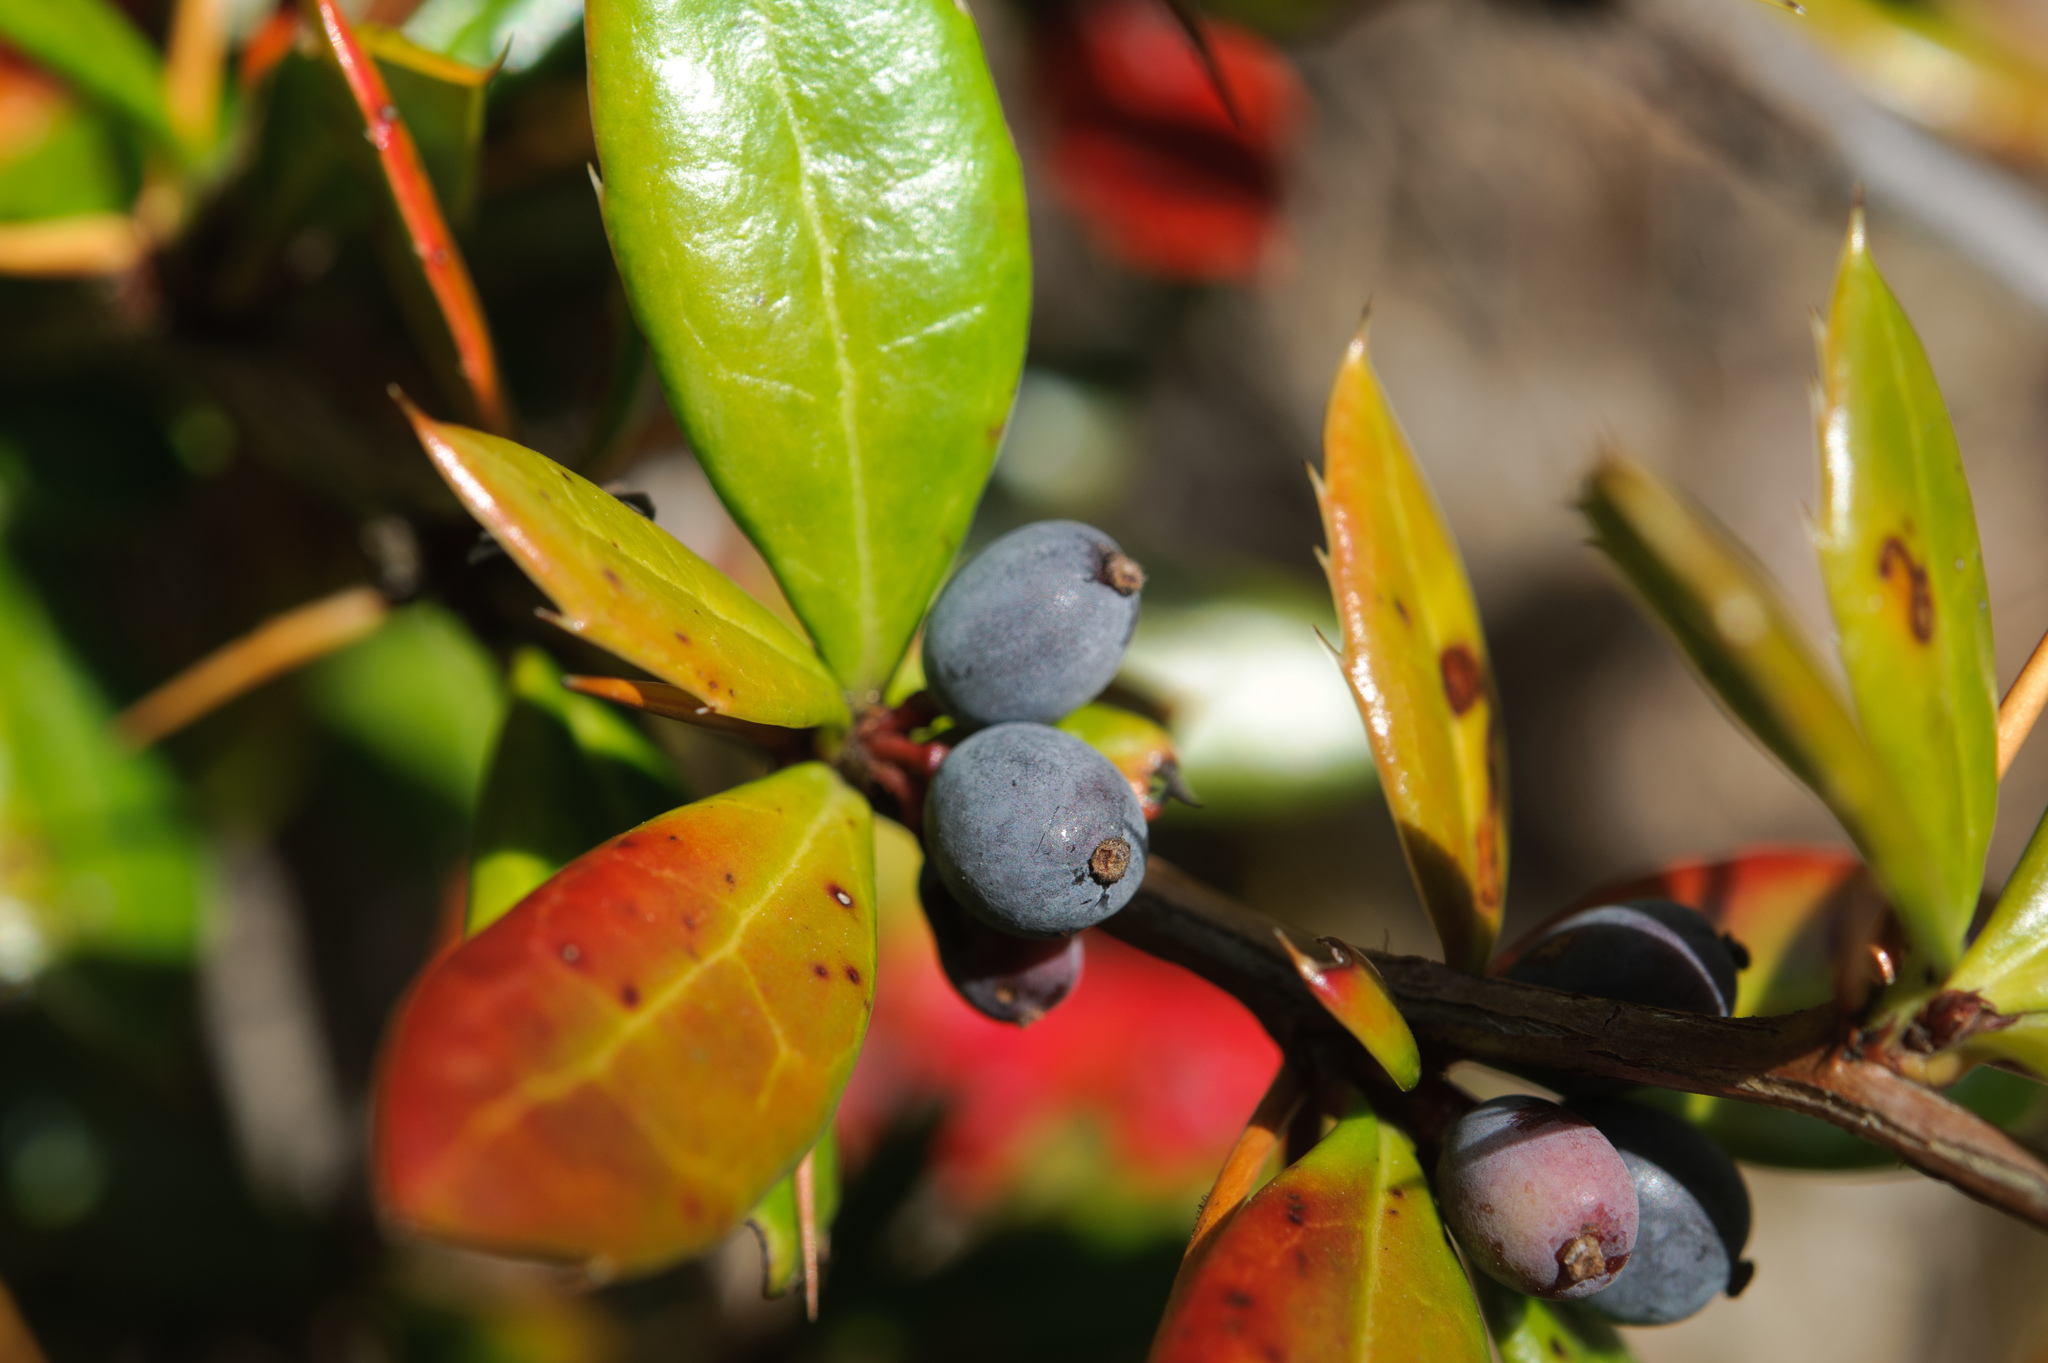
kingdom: Plantae
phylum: Tracheophyta
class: Magnoliopsida
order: Ranunculales
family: Berberidaceae
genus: Berberis
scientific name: Berberis nantoensis
